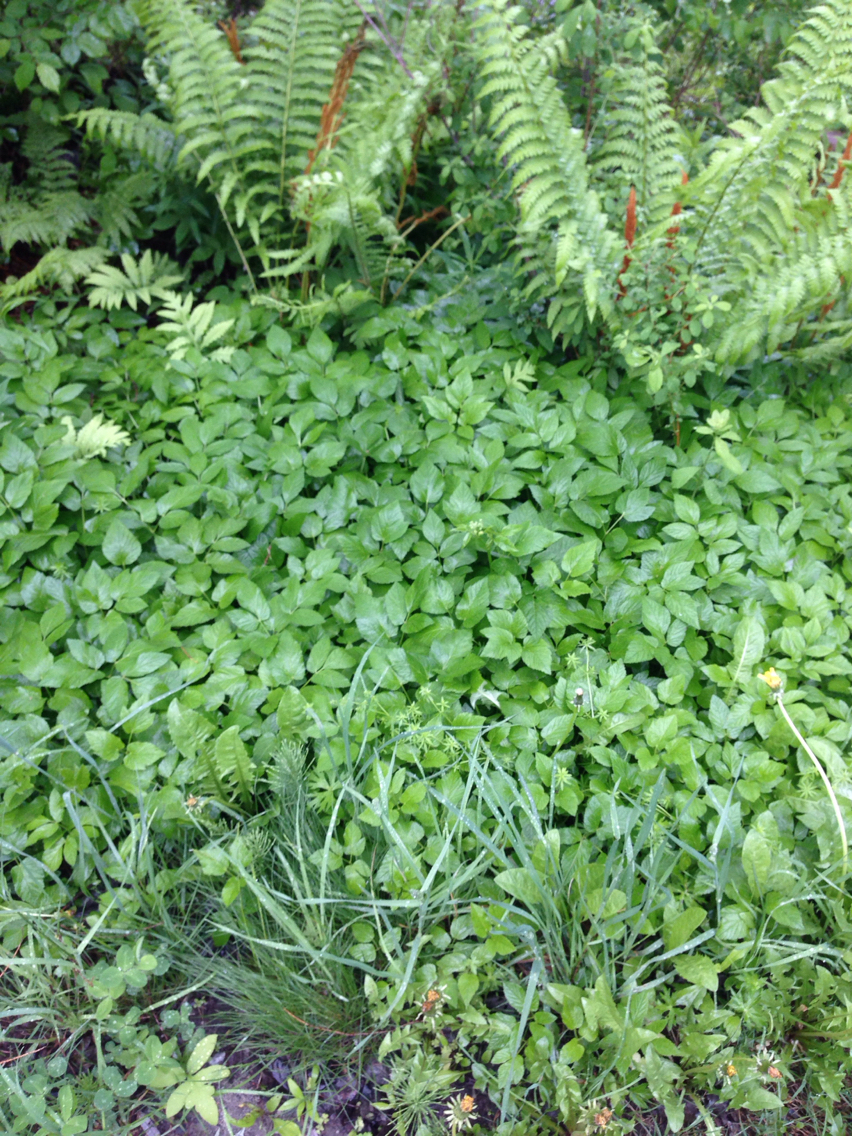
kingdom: Plantae
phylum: Tracheophyta
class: Magnoliopsida
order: Apiales
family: Apiaceae
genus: Aegopodium
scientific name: Aegopodium podagraria
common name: Ground-elder
